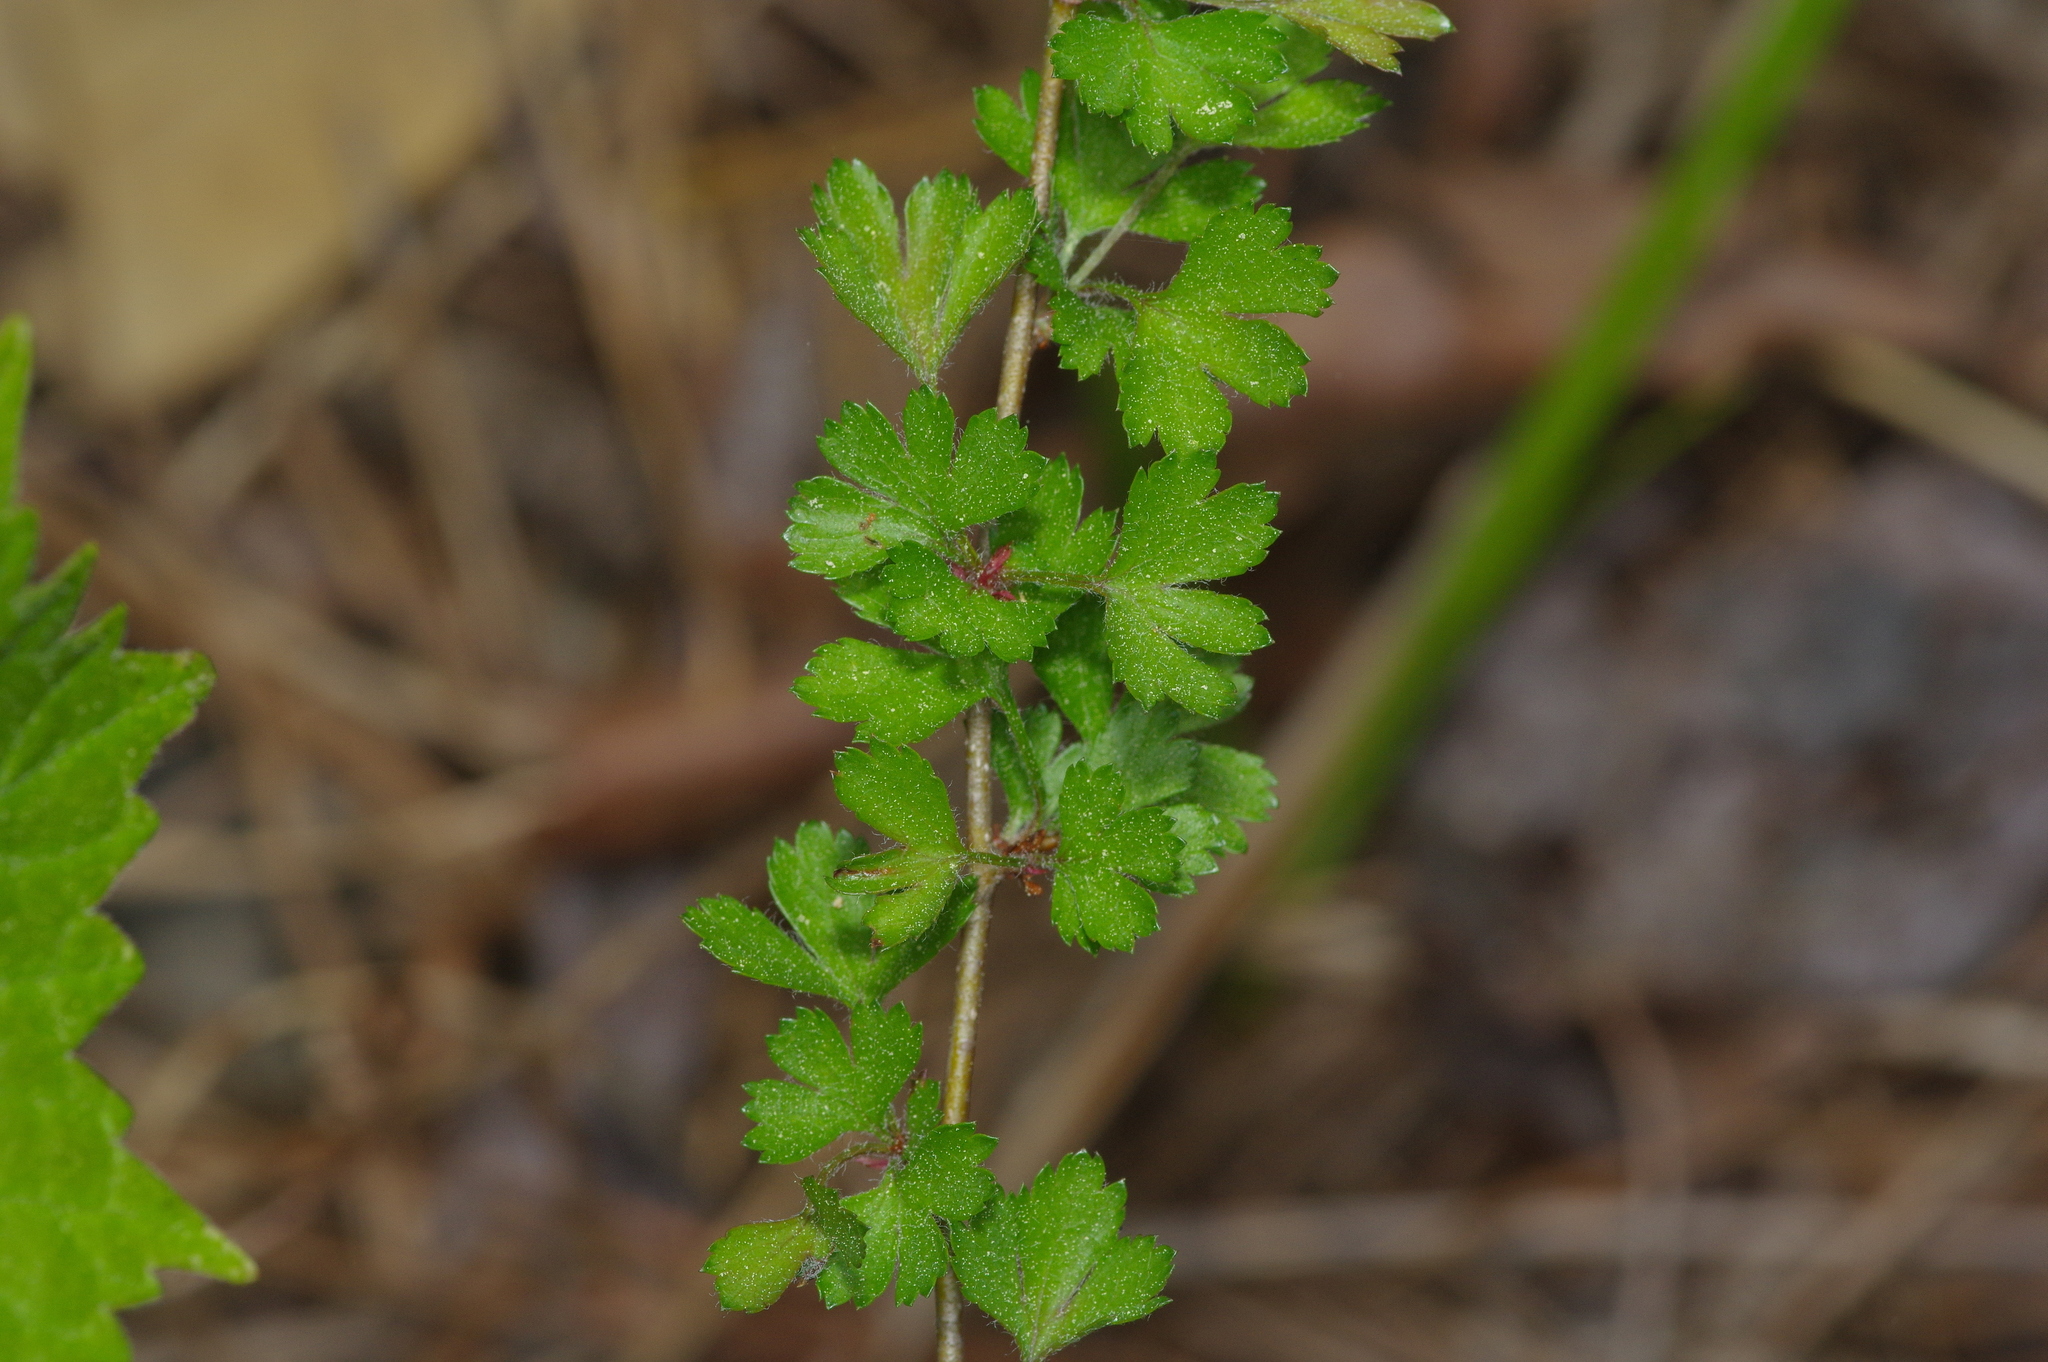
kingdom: Plantae
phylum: Tracheophyta
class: Magnoliopsida
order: Rosales
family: Rosaceae
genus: Crataegus
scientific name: Crataegus marshallii
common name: Parsley-hawthorn
